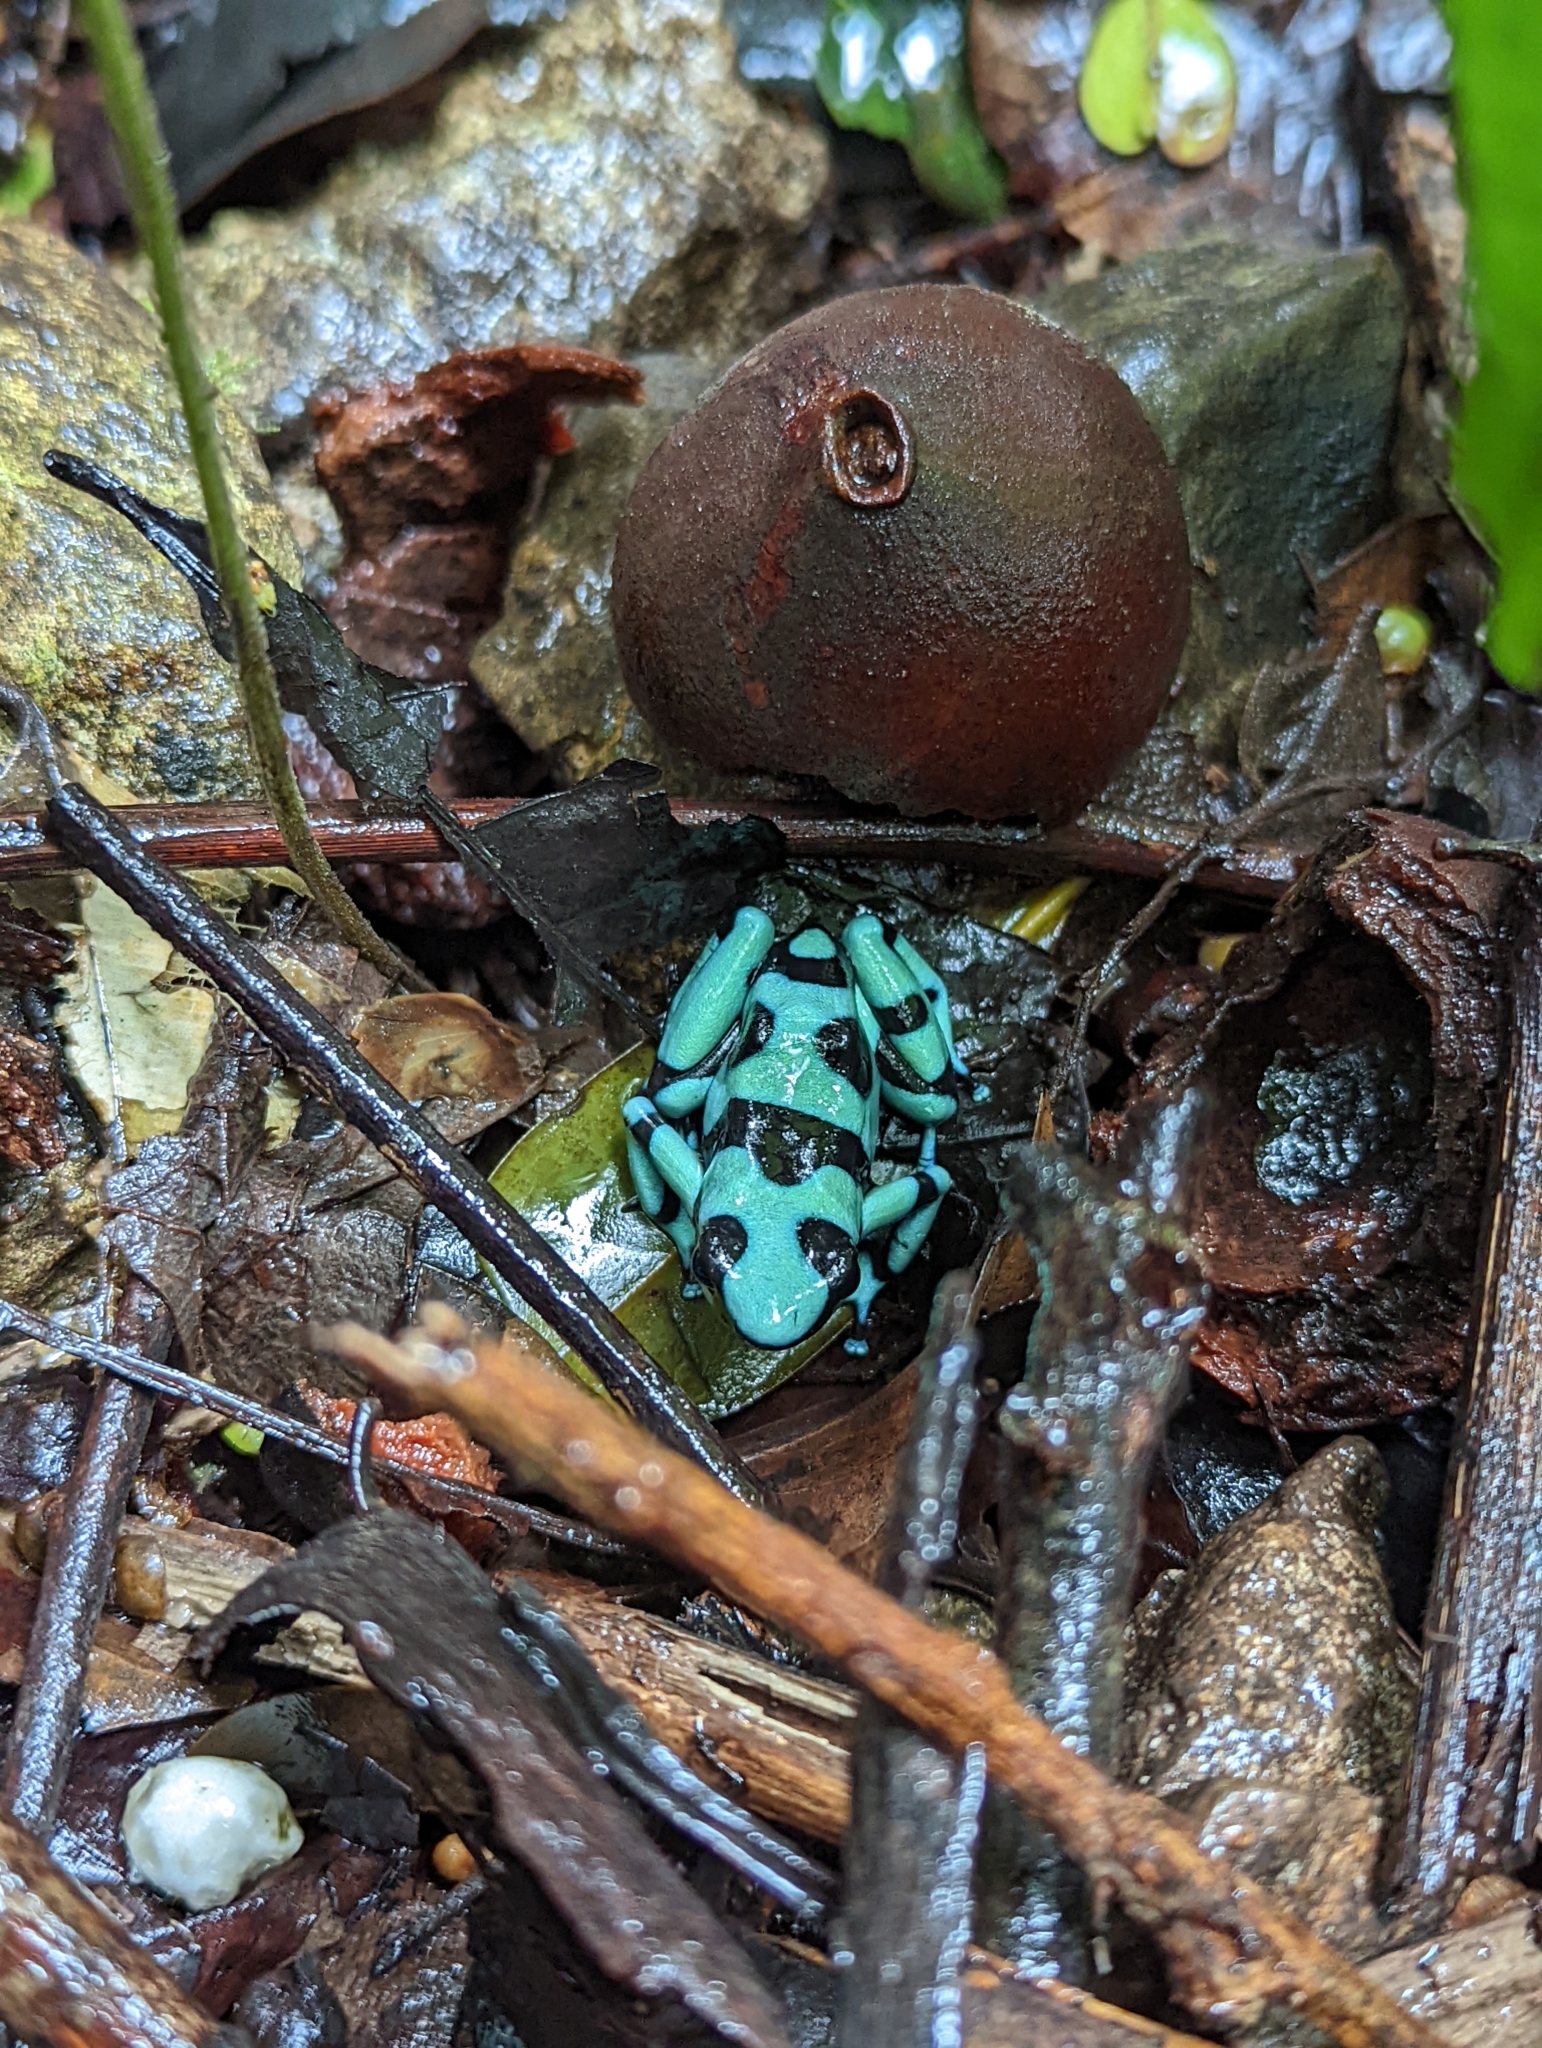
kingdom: Animalia
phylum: Chordata
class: Amphibia
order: Anura
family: Dendrobatidae
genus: Dendrobates
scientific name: Dendrobates auratus
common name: Green and black poison dart frog
